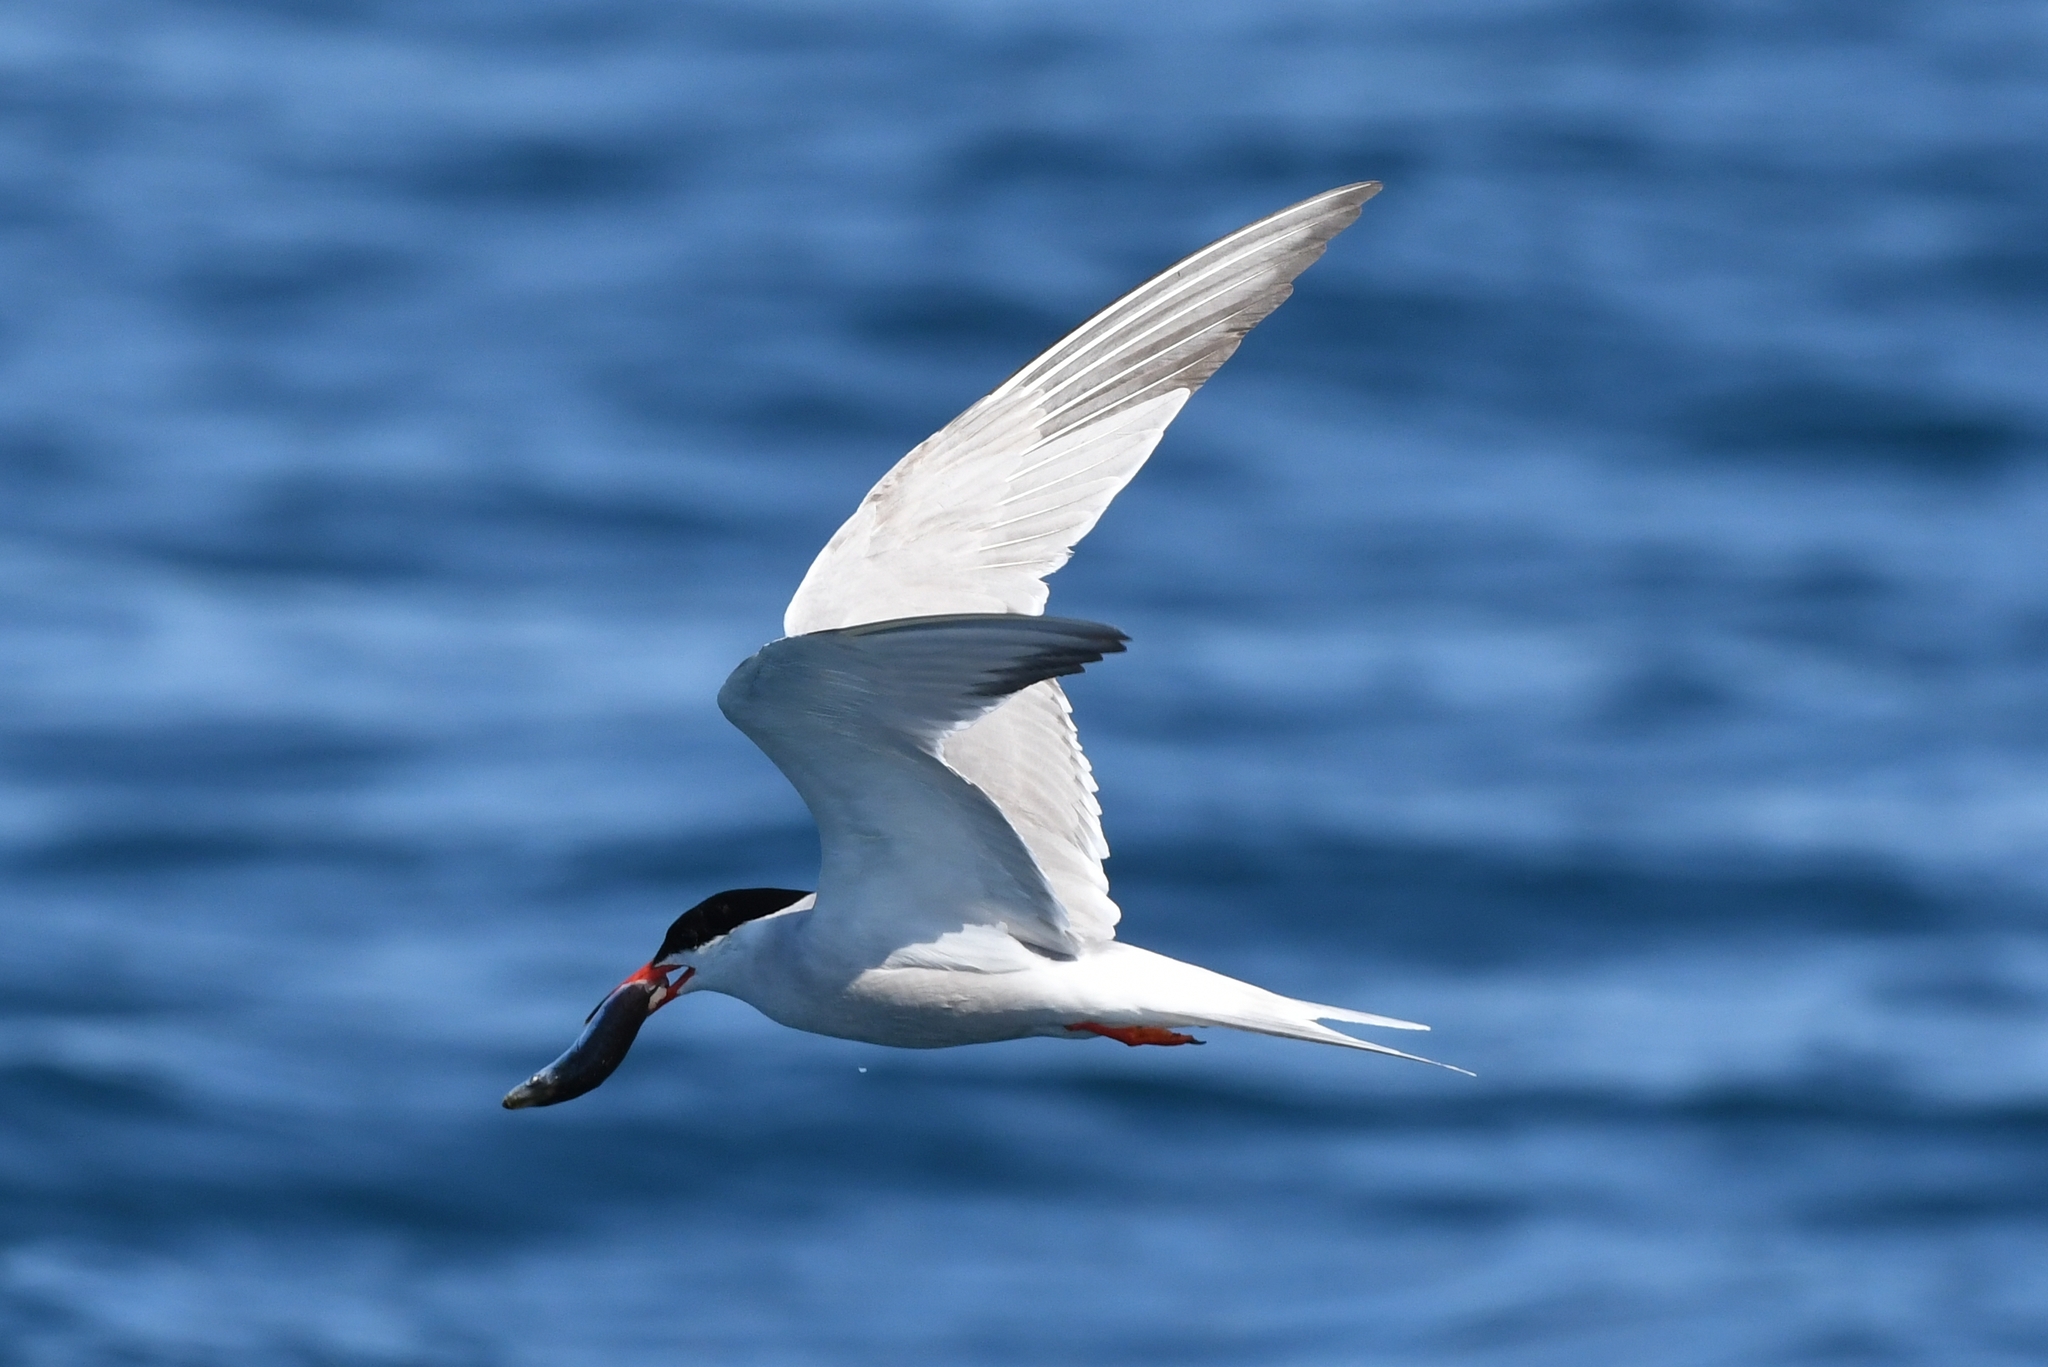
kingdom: Animalia
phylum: Chordata
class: Aves
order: Charadriiformes
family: Laridae
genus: Sterna
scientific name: Sterna hirundo
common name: Common tern
